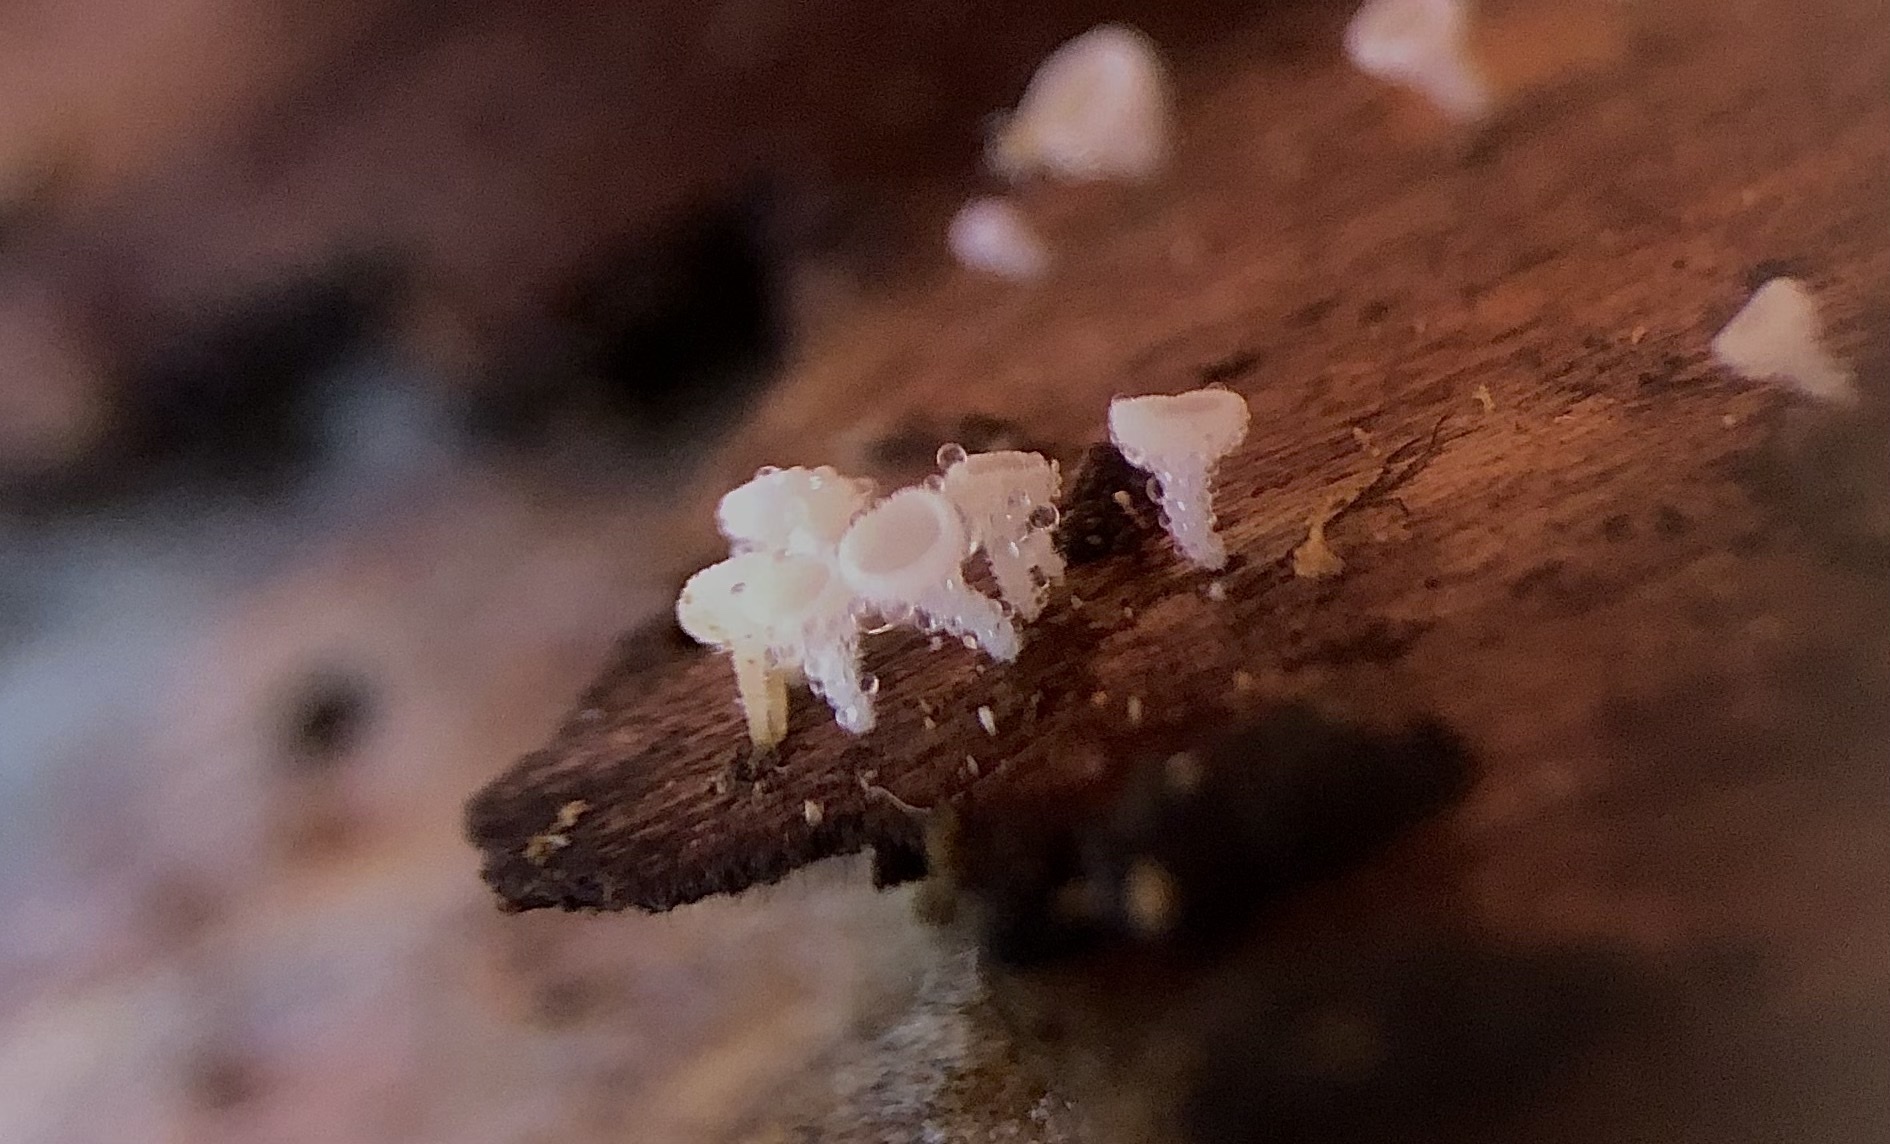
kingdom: Fungi
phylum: Ascomycota
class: Leotiomycetes
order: Helotiales
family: Lachnaceae
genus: Lachnum
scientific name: Lachnum virgineum
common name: Snowy disco
